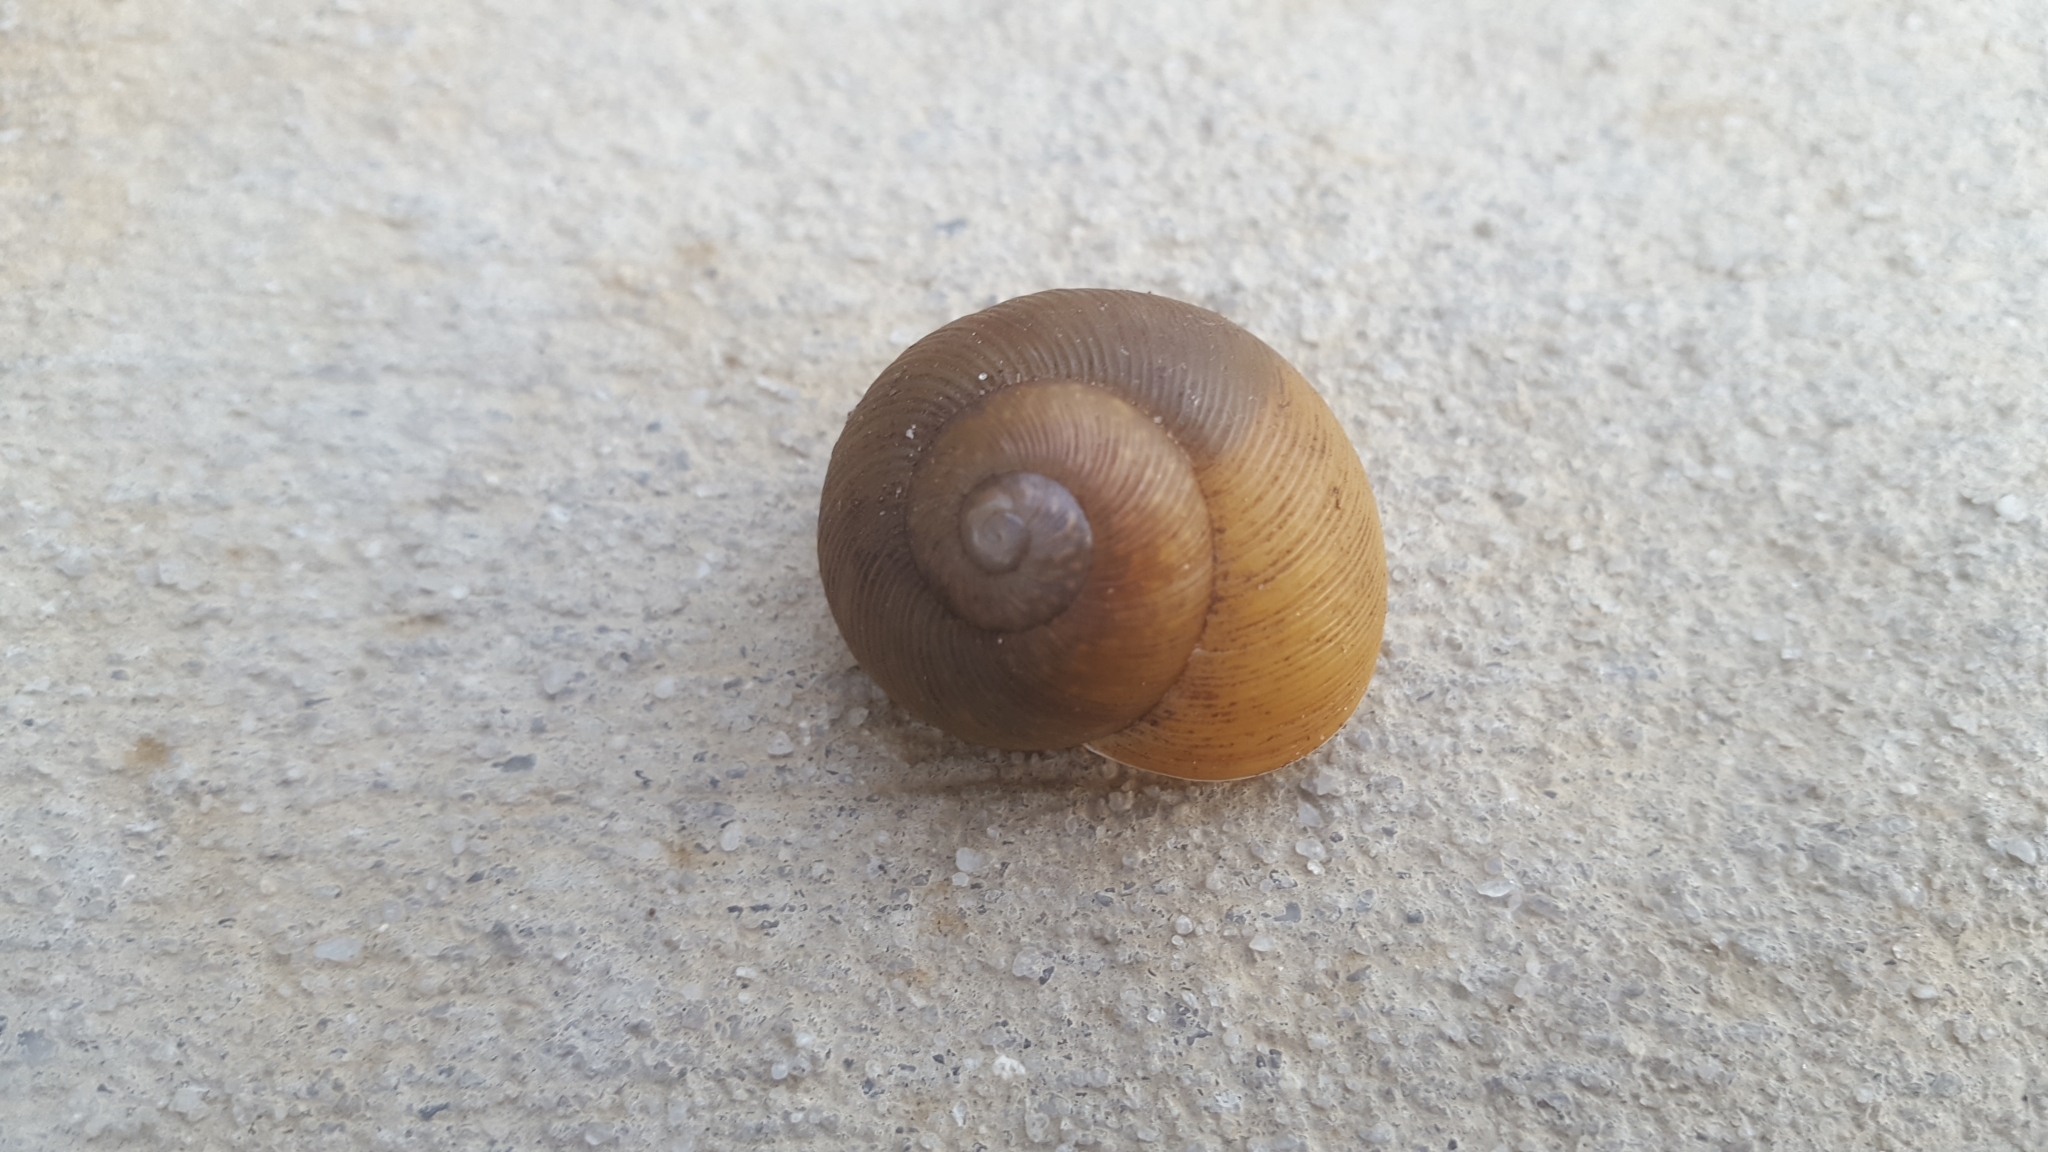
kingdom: Animalia
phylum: Mollusca
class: Gastropoda
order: Stylommatophora
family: Zachrysiidae
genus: Zachrysia
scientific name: Zachrysia provisoria
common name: Garden zachrysia
